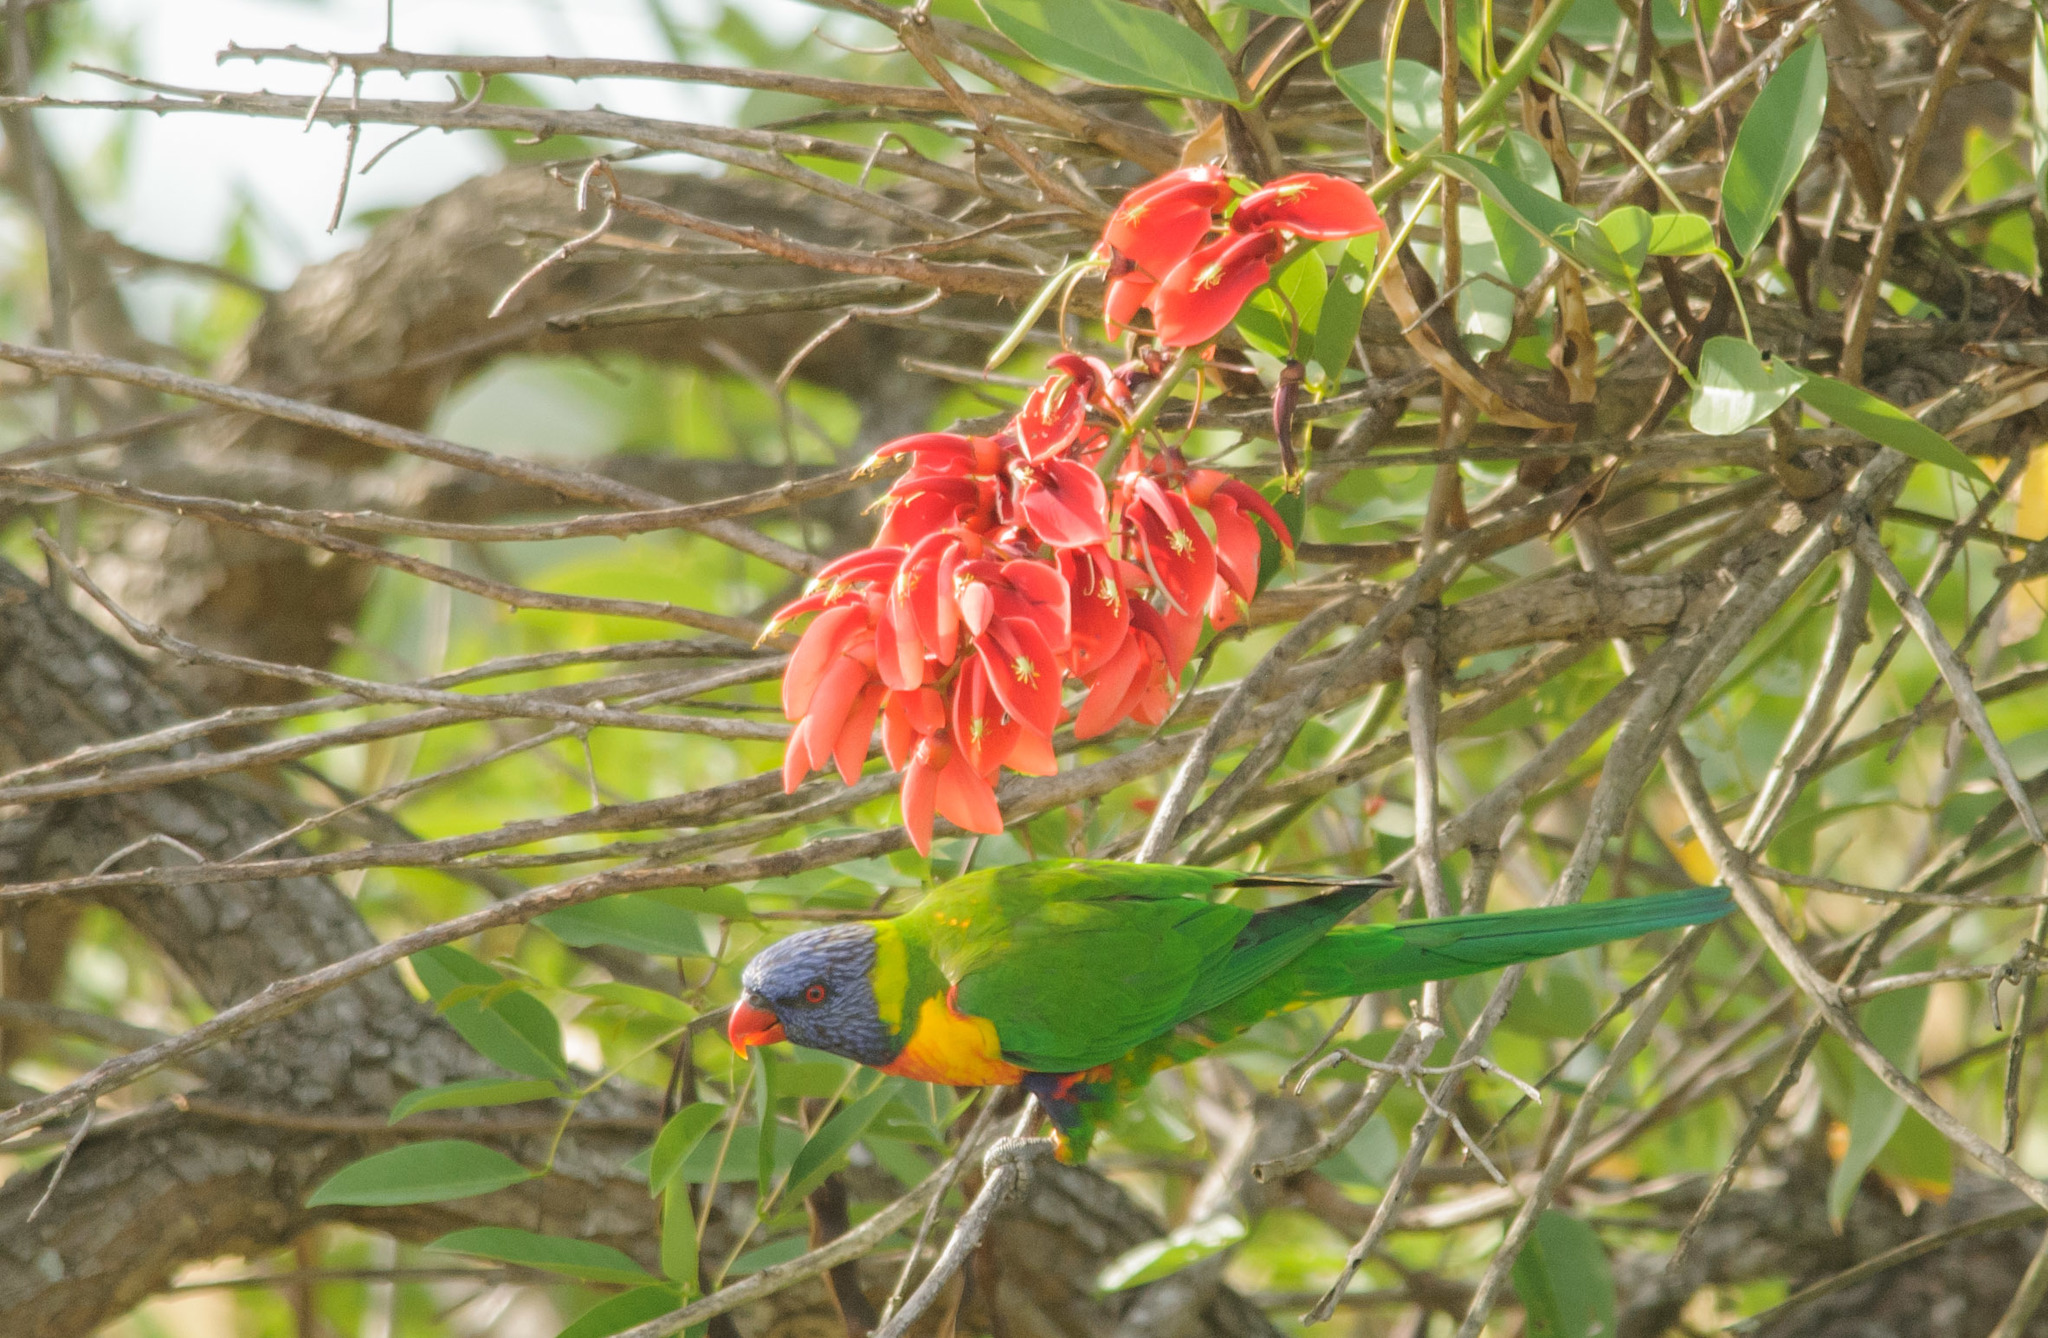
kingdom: Animalia
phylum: Chordata
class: Aves
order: Psittaciformes
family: Psittacidae
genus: Trichoglossus
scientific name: Trichoglossus haematodus
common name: Coconut lorikeet
